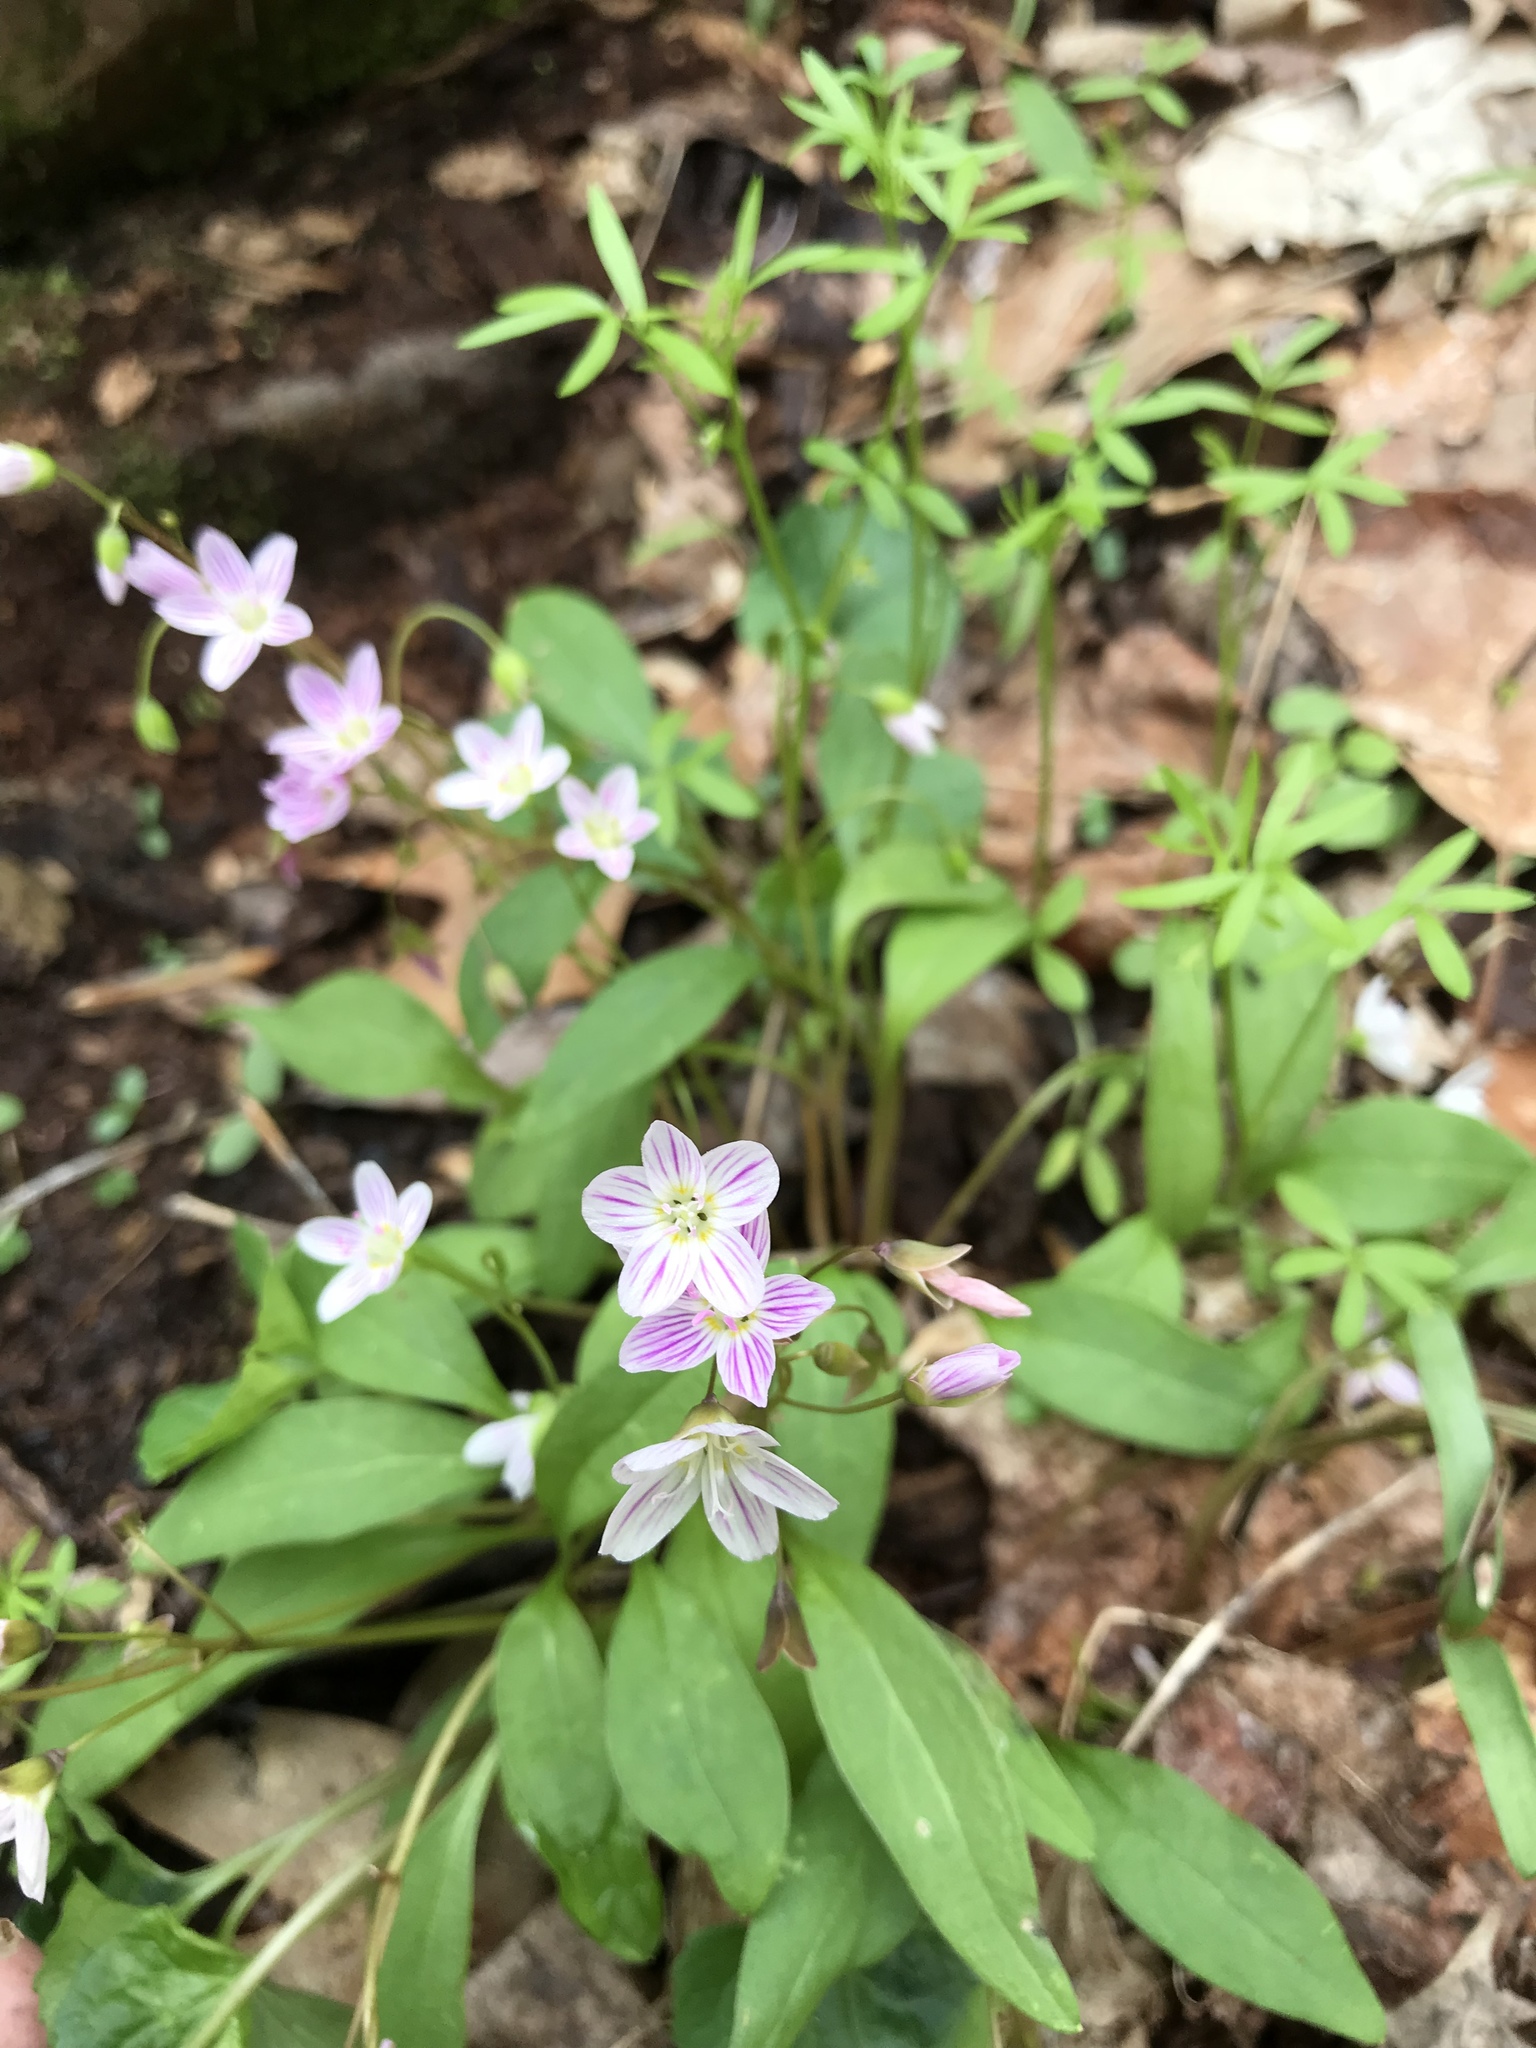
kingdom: Plantae
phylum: Tracheophyta
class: Magnoliopsida
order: Caryophyllales
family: Montiaceae
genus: Claytonia
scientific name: Claytonia caroliniana
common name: Carolina spring beauty
